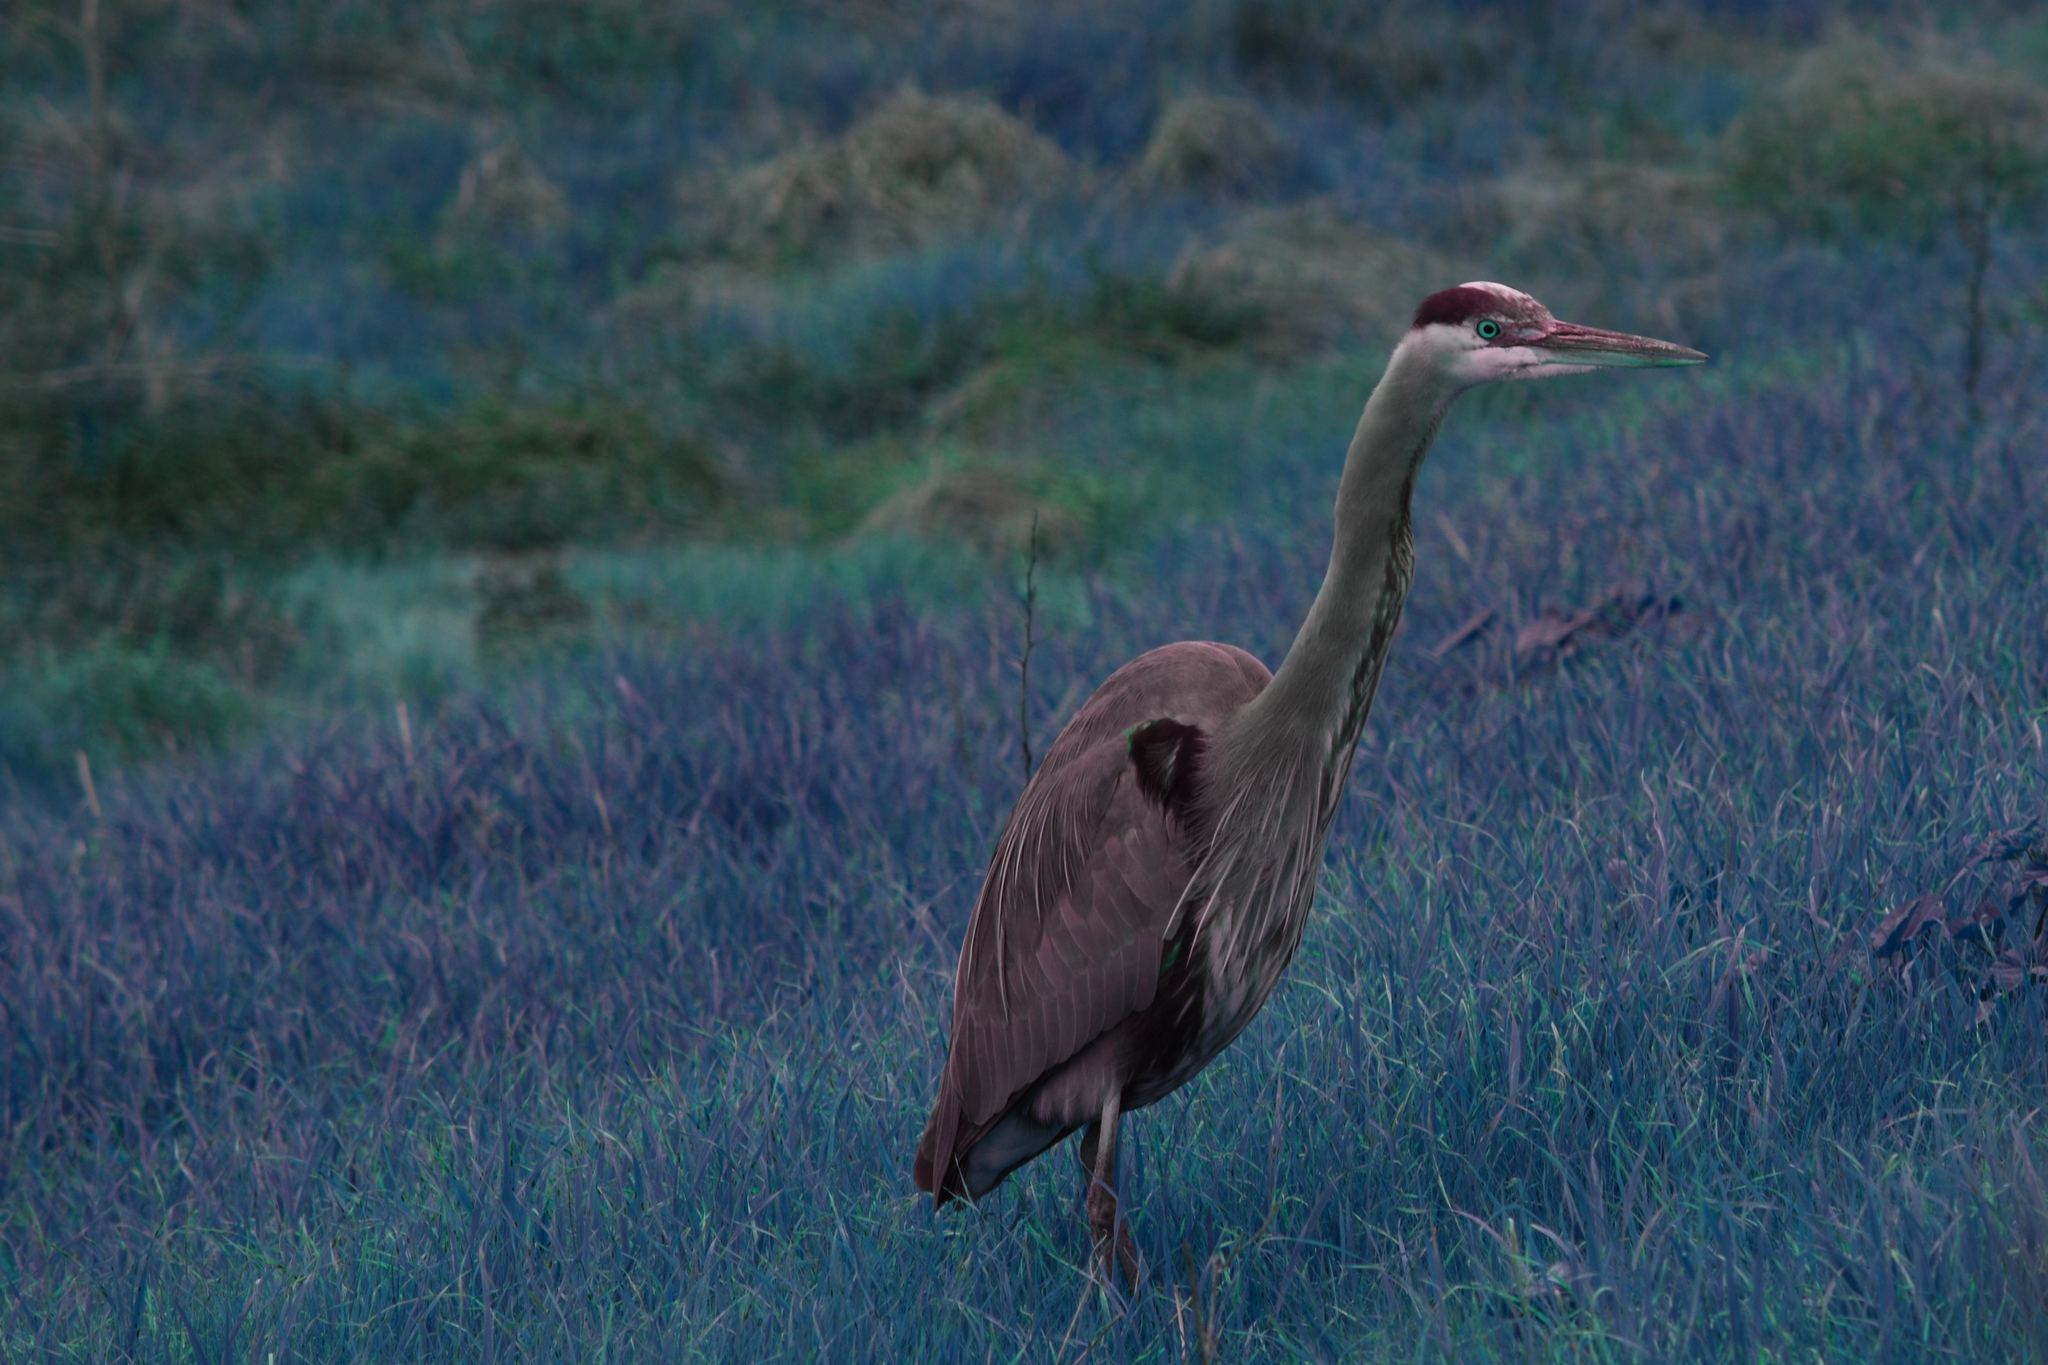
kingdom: Animalia
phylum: Chordata
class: Aves
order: Pelecaniformes
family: Ardeidae
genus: Ardea
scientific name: Ardea herodias
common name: Great blue heron
